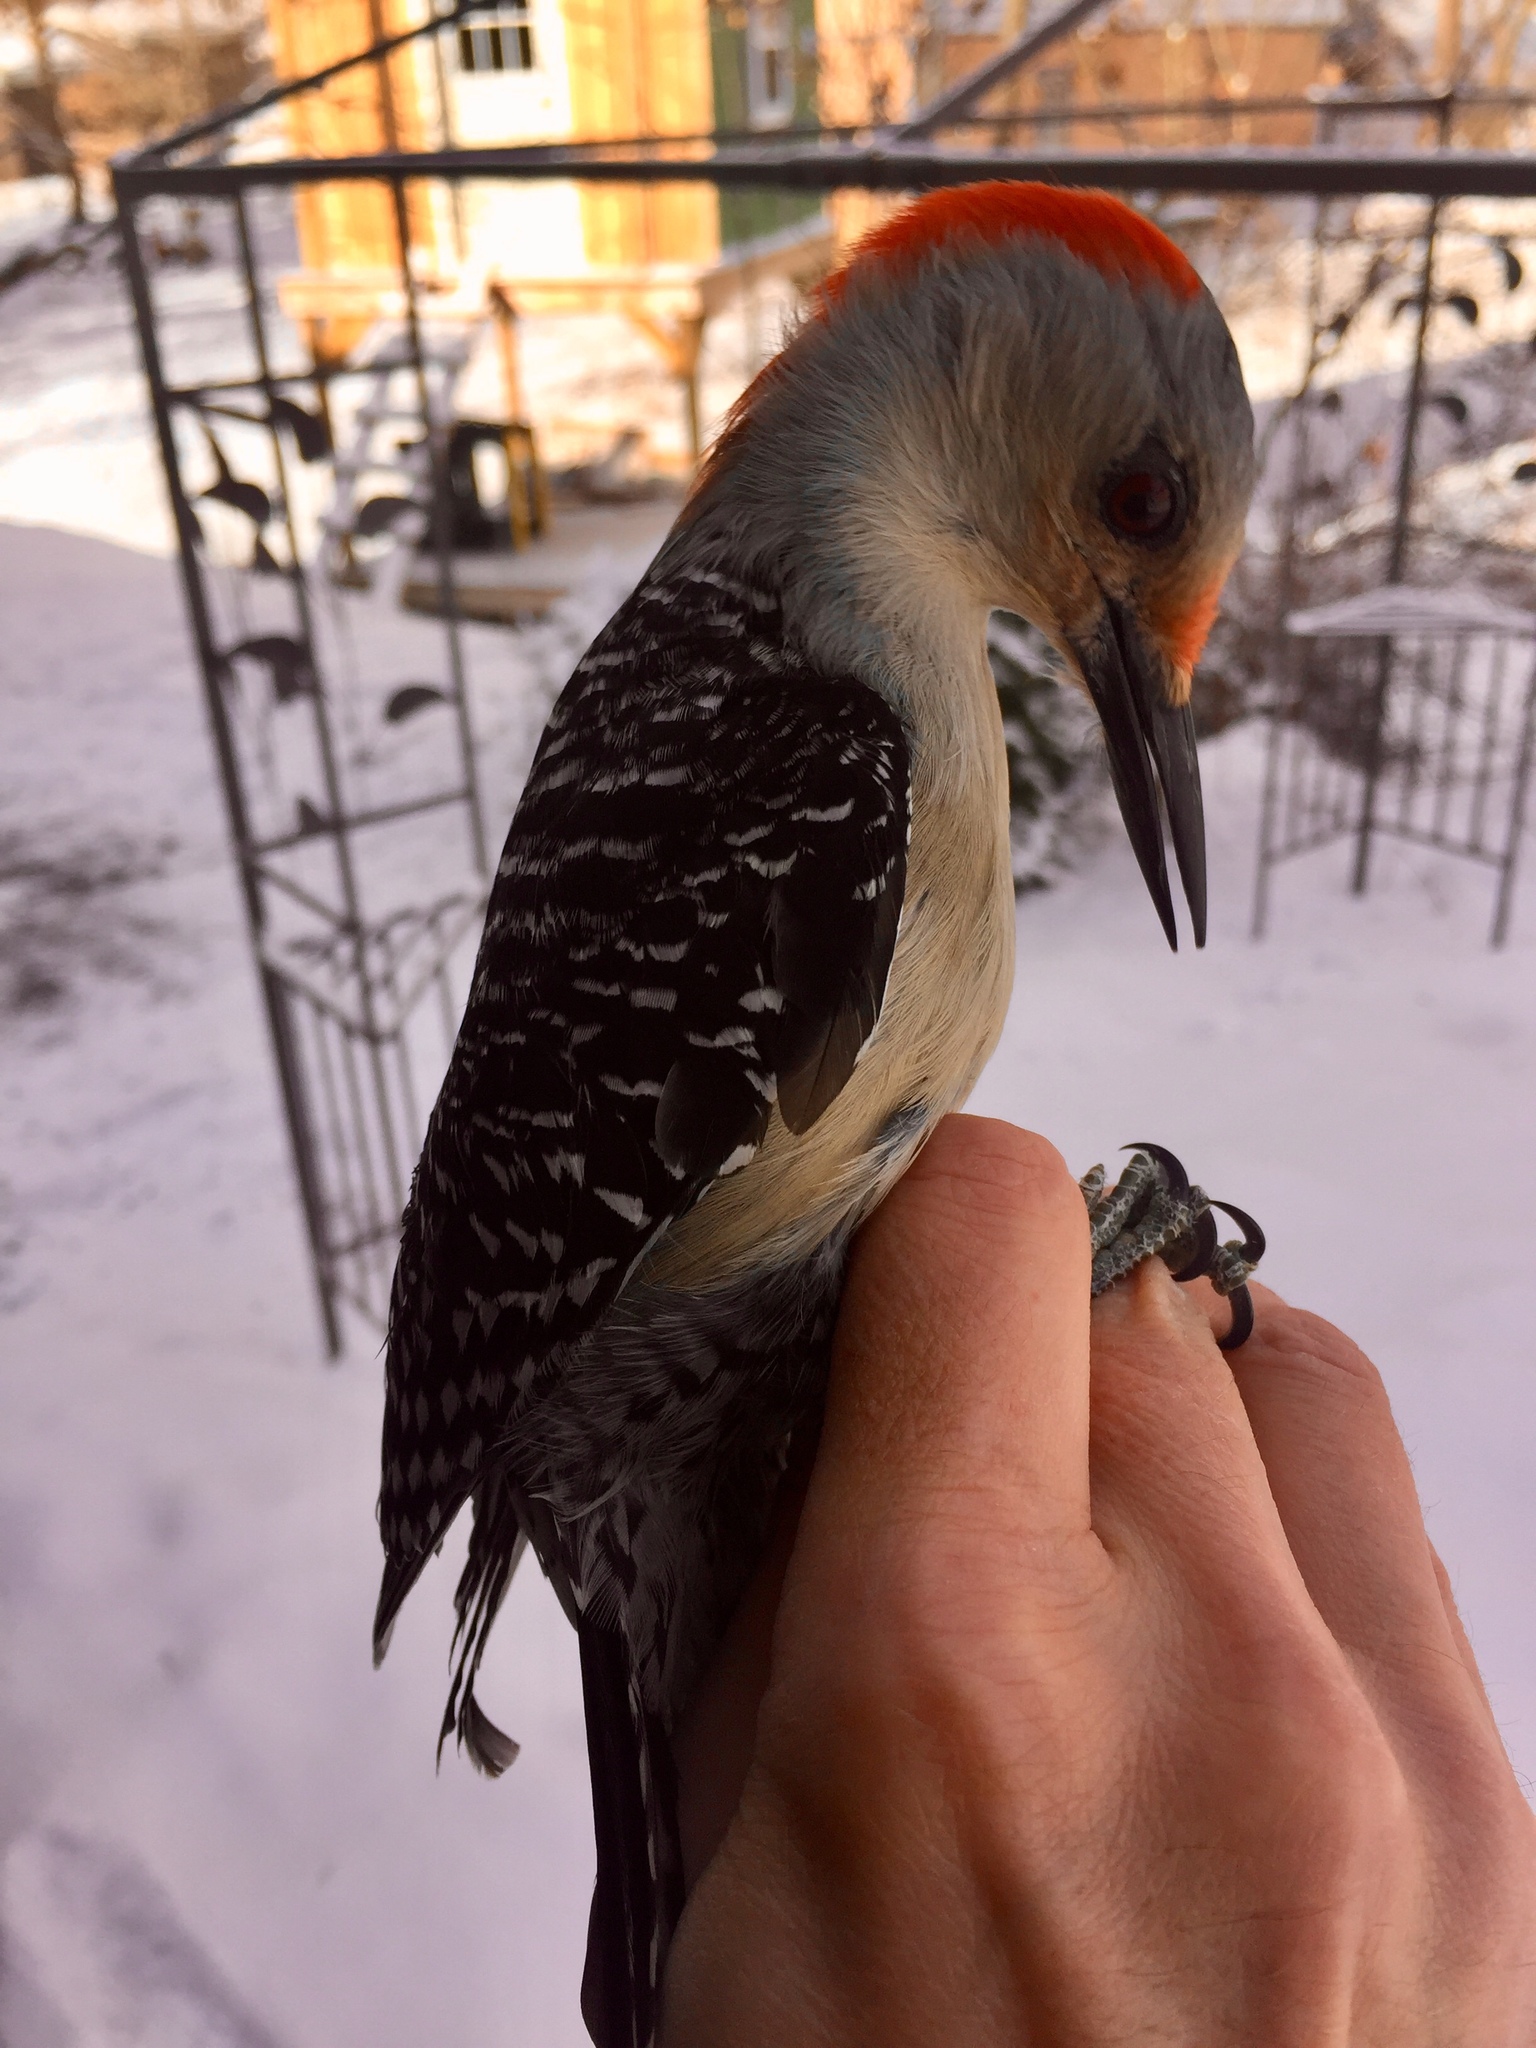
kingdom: Animalia
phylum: Chordata
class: Aves
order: Piciformes
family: Picidae
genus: Melanerpes
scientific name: Melanerpes carolinus
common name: Red-bellied woodpecker
